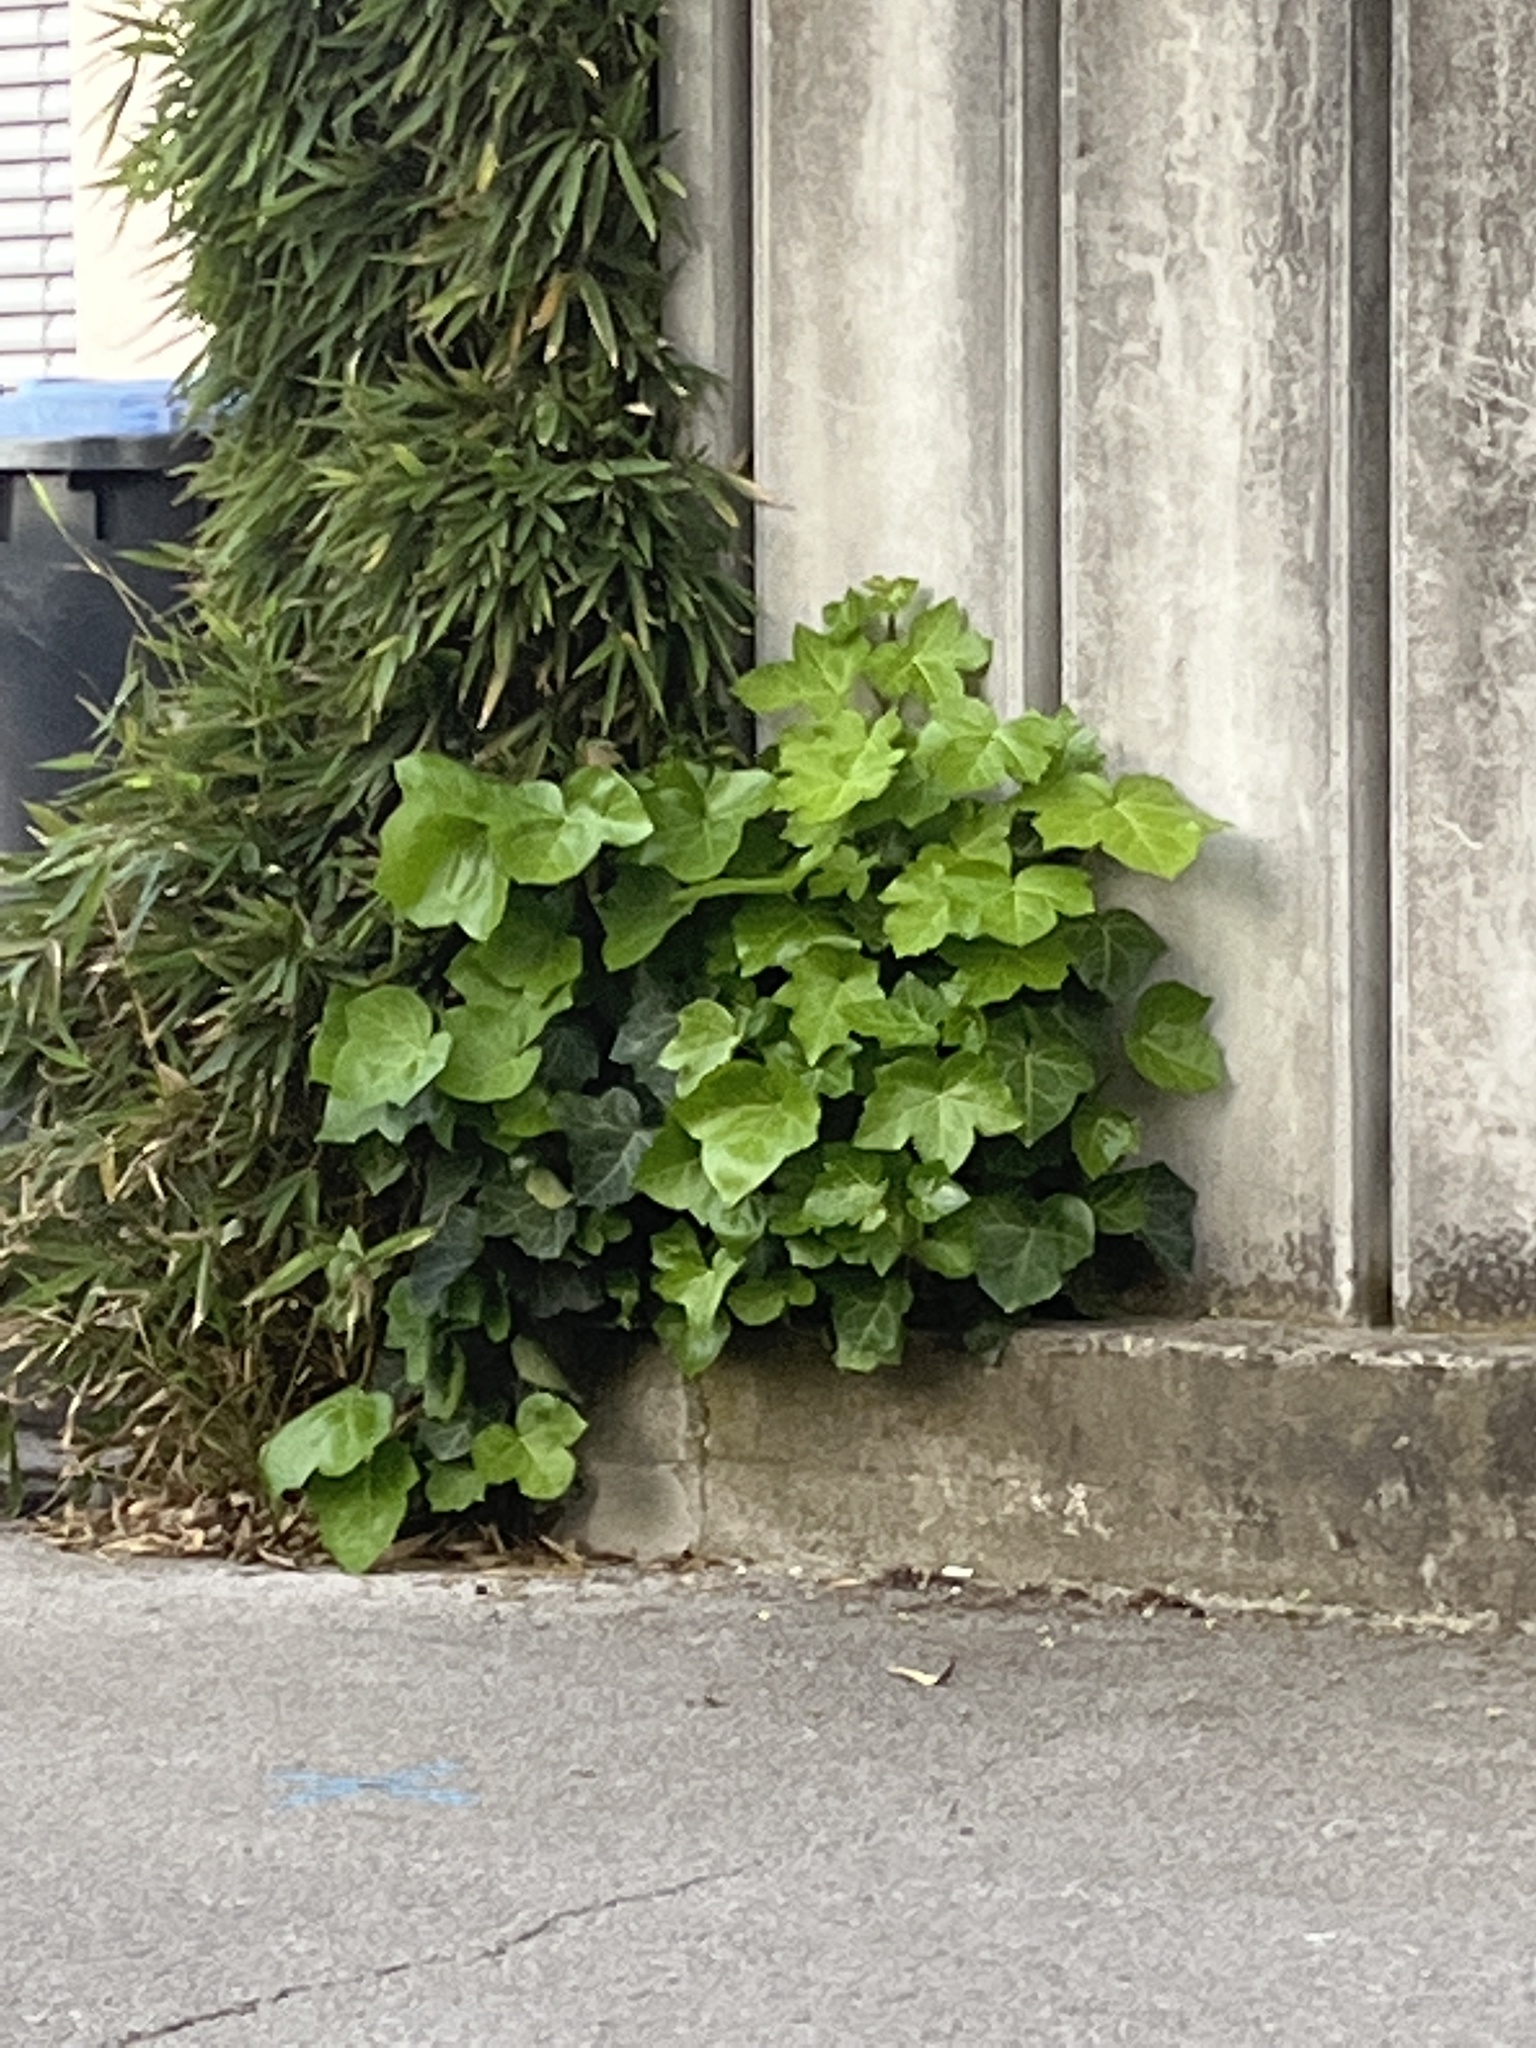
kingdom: Plantae
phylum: Tracheophyta
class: Magnoliopsida
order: Apiales
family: Araliaceae
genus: Hedera
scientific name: Hedera helix
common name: Ivy
